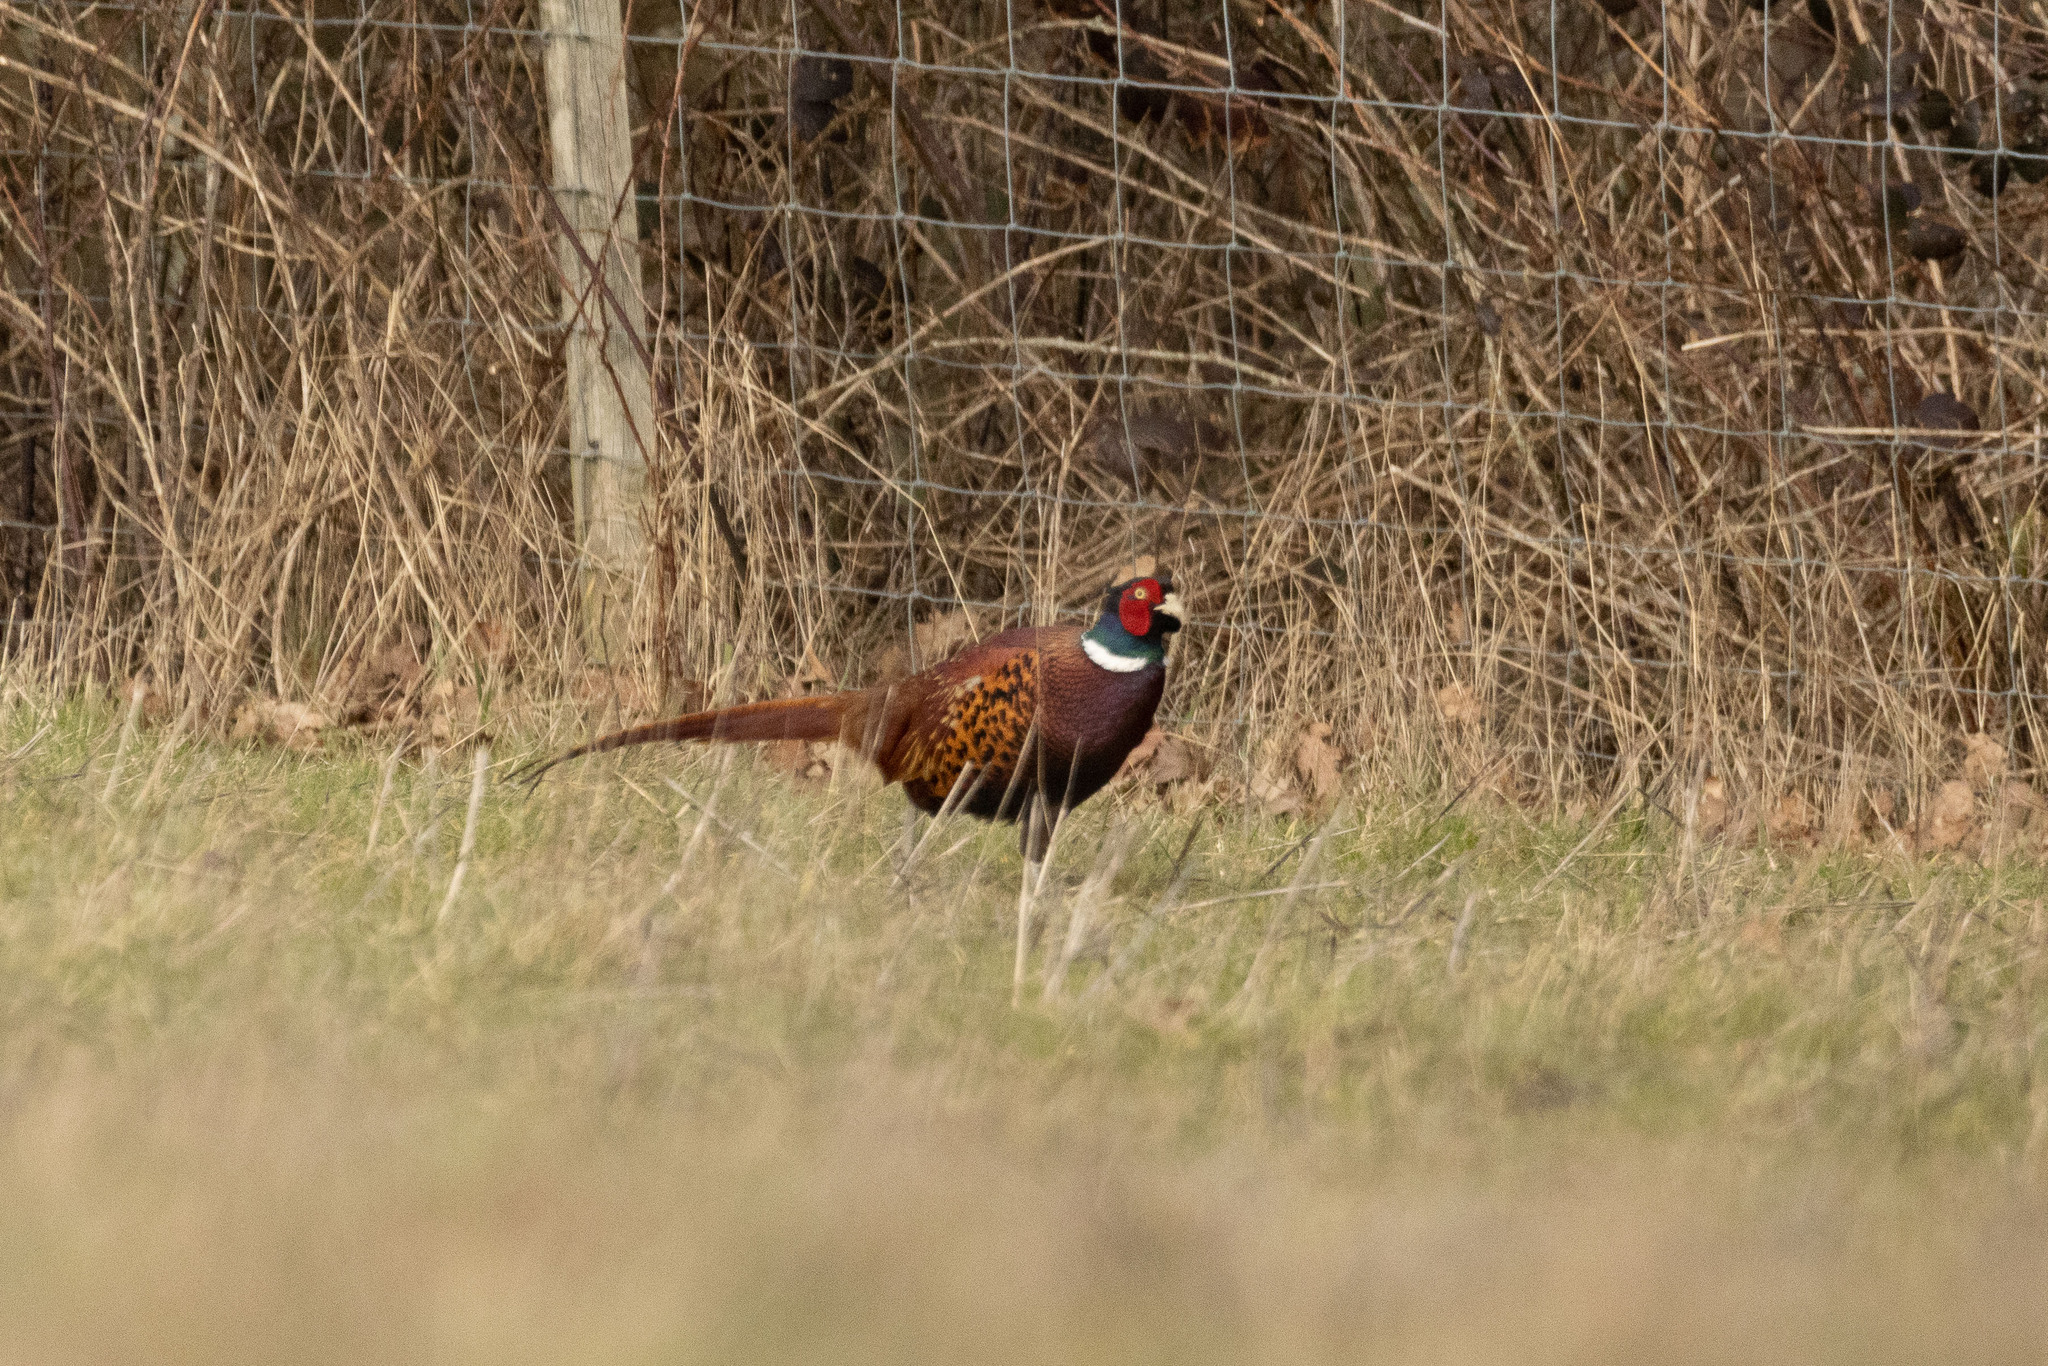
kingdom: Animalia
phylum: Chordata
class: Aves
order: Galliformes
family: Phasianidae
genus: Phasianus
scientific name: Phasianus colchicus
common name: Common pheasant
